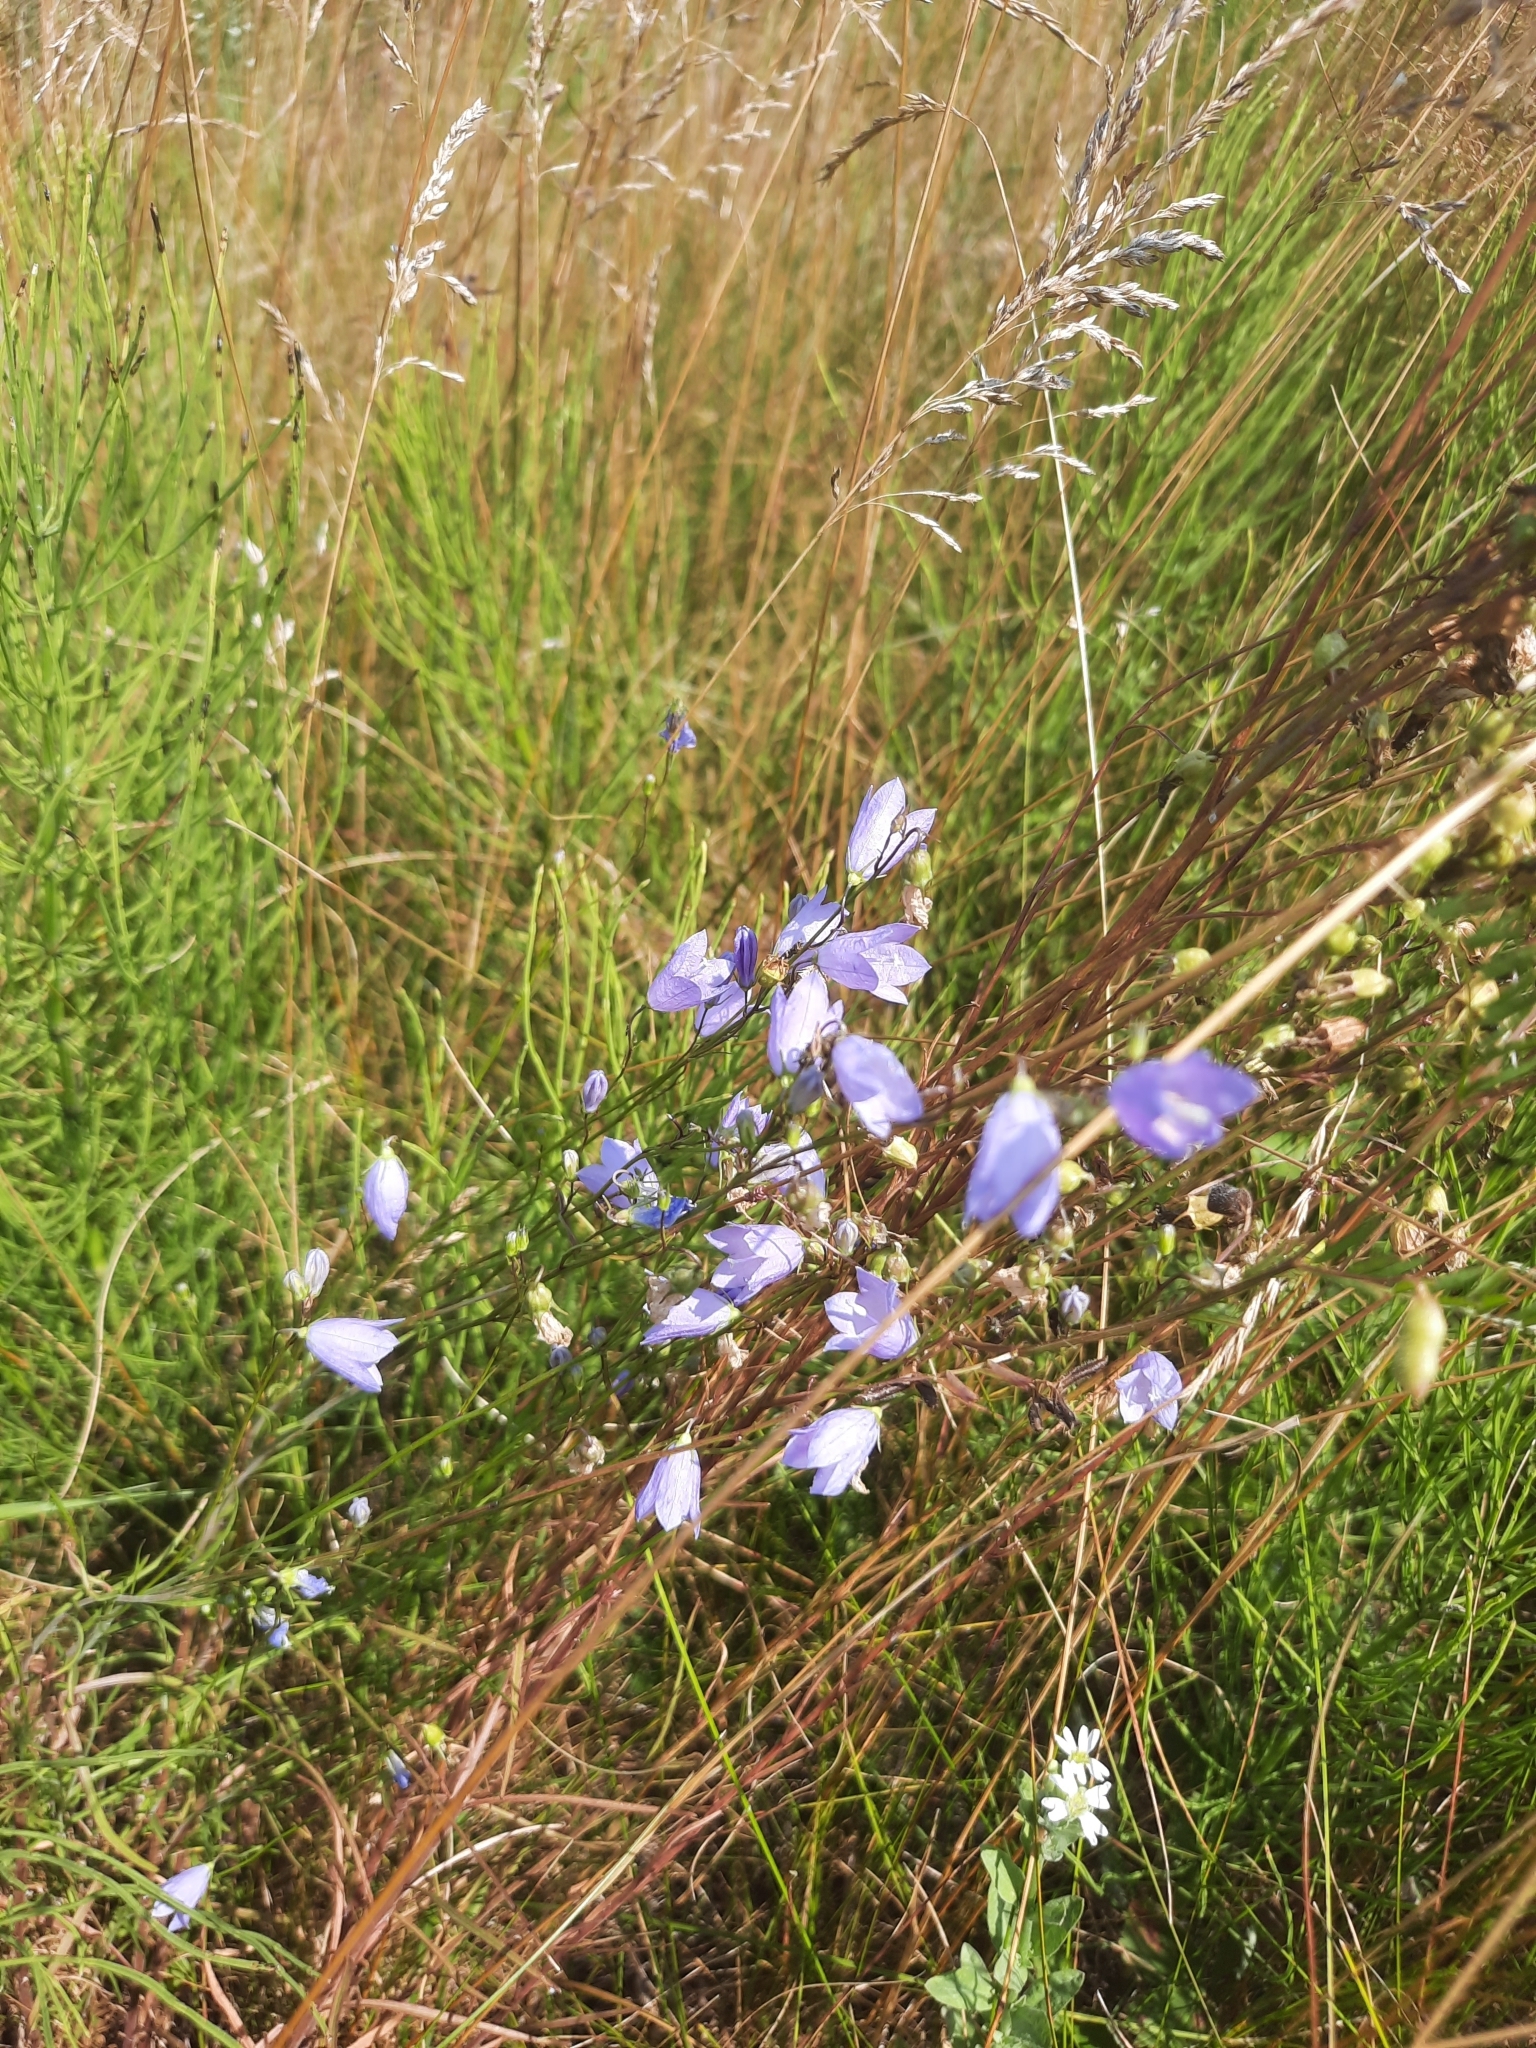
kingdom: Plantae
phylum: Tracheophyta
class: Magnoliopsida
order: Asterales
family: Campanulaceae
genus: Campanula
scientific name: Campanula rotundifolia
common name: Harebell
